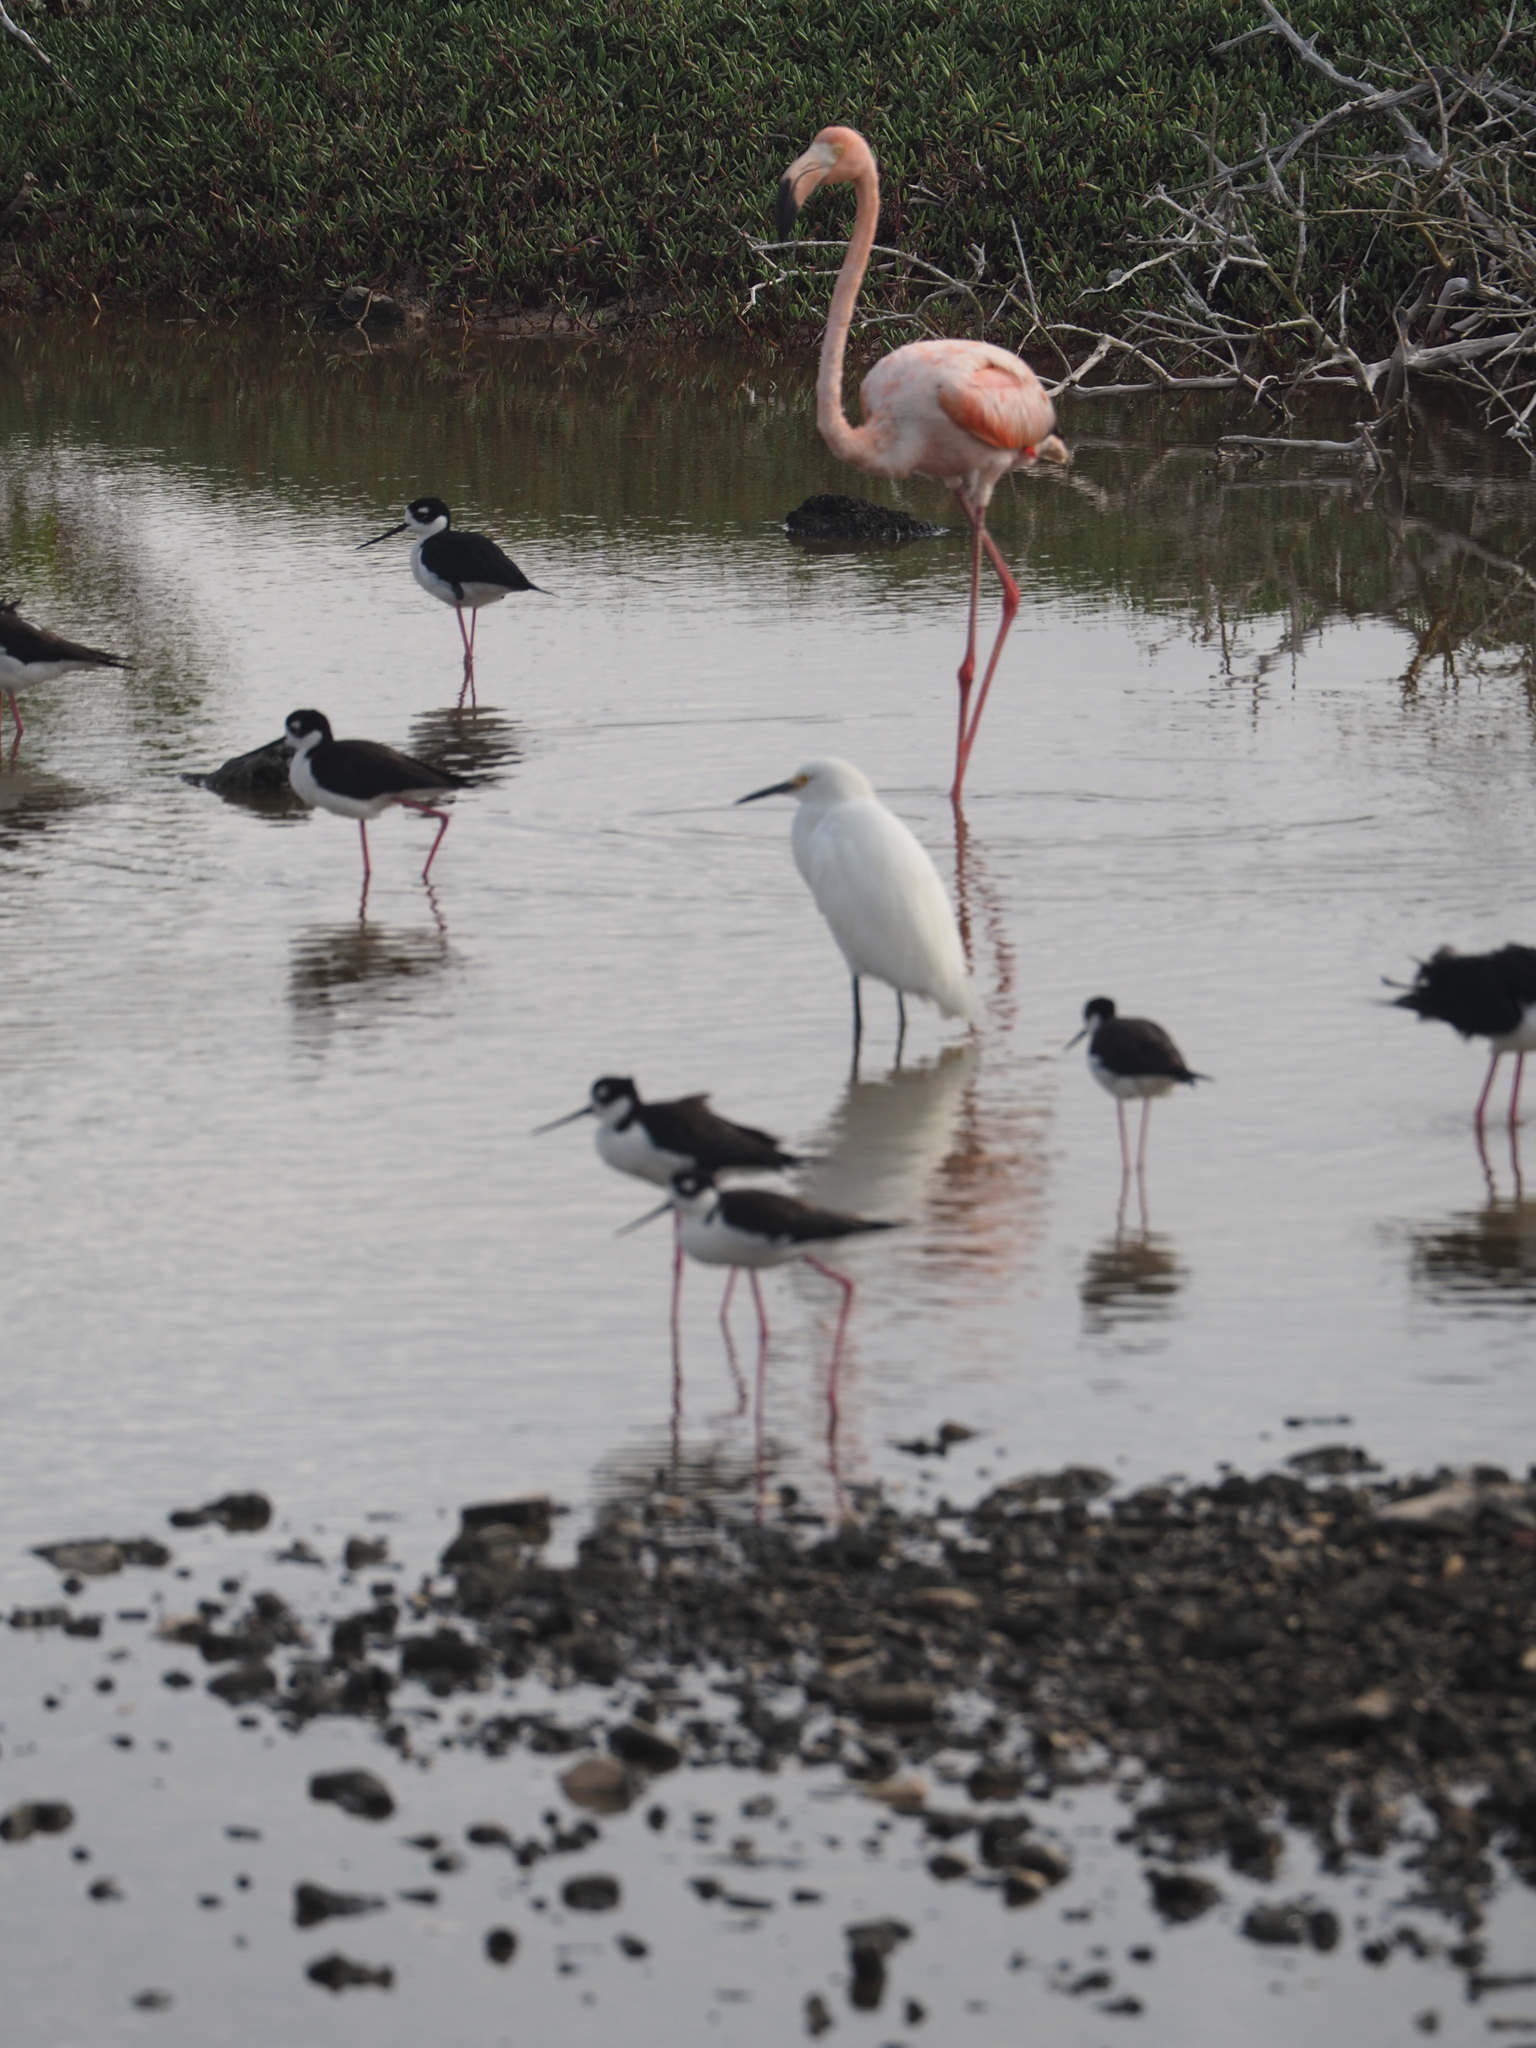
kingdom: Animalia
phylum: Chordata
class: Aves
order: Phoenicopteriformes
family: Phoenicopteridae
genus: Phoenicopterus
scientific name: Phoenicopterus ruber
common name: American flamingo
